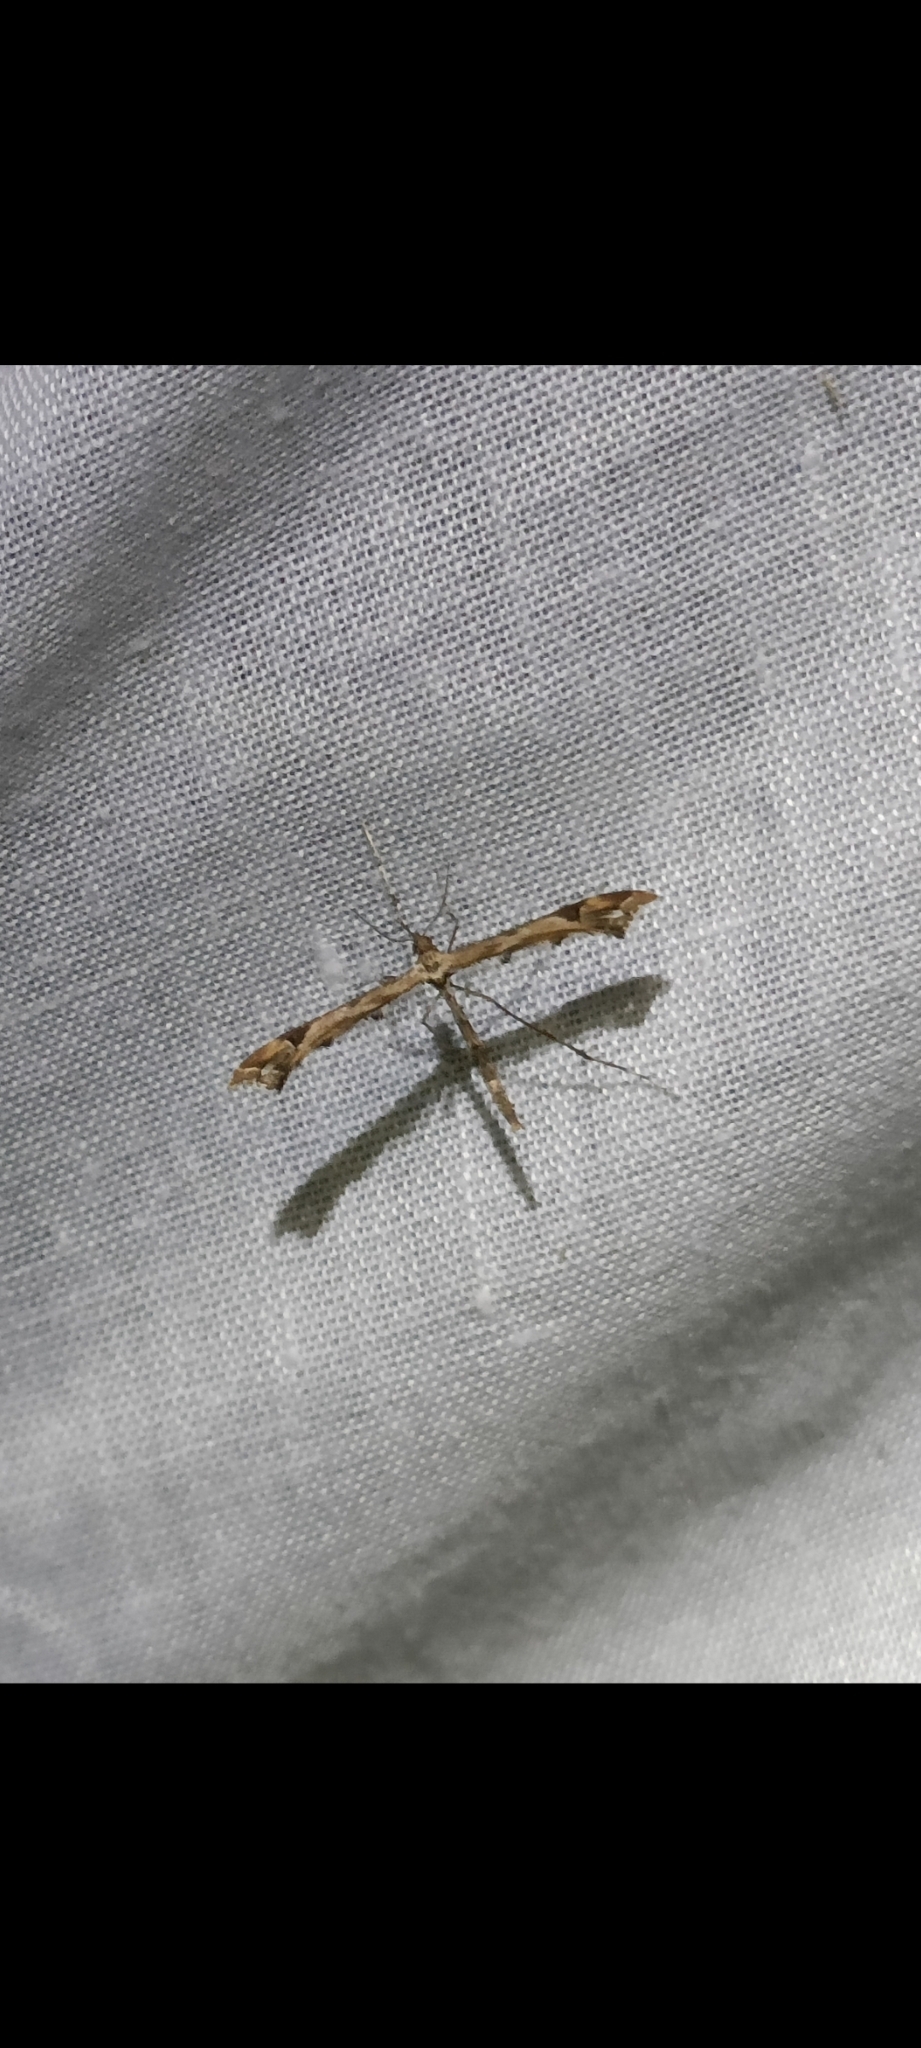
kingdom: Animalia
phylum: Arthropoda
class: Insecta
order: Lepidoptera
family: Pterophoridae
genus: Amblyptilia
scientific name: Amblyptilia acanthadactyla
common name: Beautiful plume
